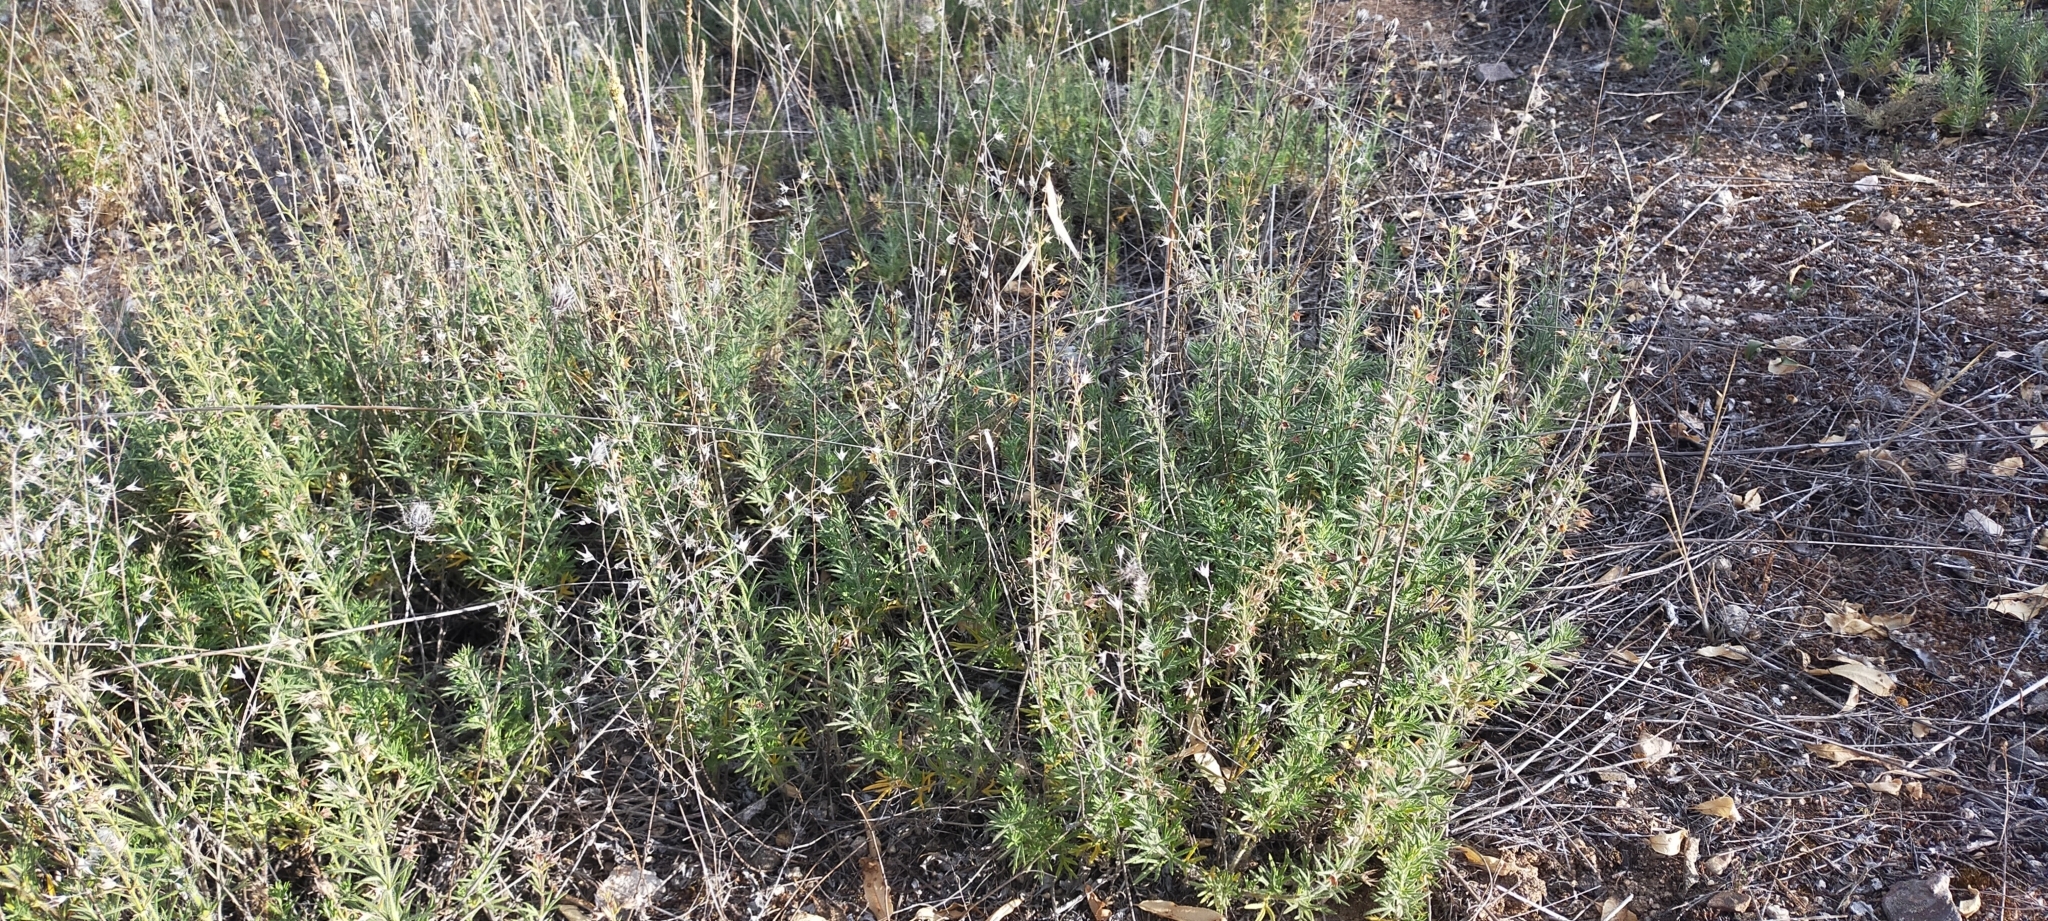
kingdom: Plantae
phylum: Tracheophyta
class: Magnoliopsida
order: Lamiales
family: Lamiaceae
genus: Teucrium
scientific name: Teucrium pseudochamaepitys
